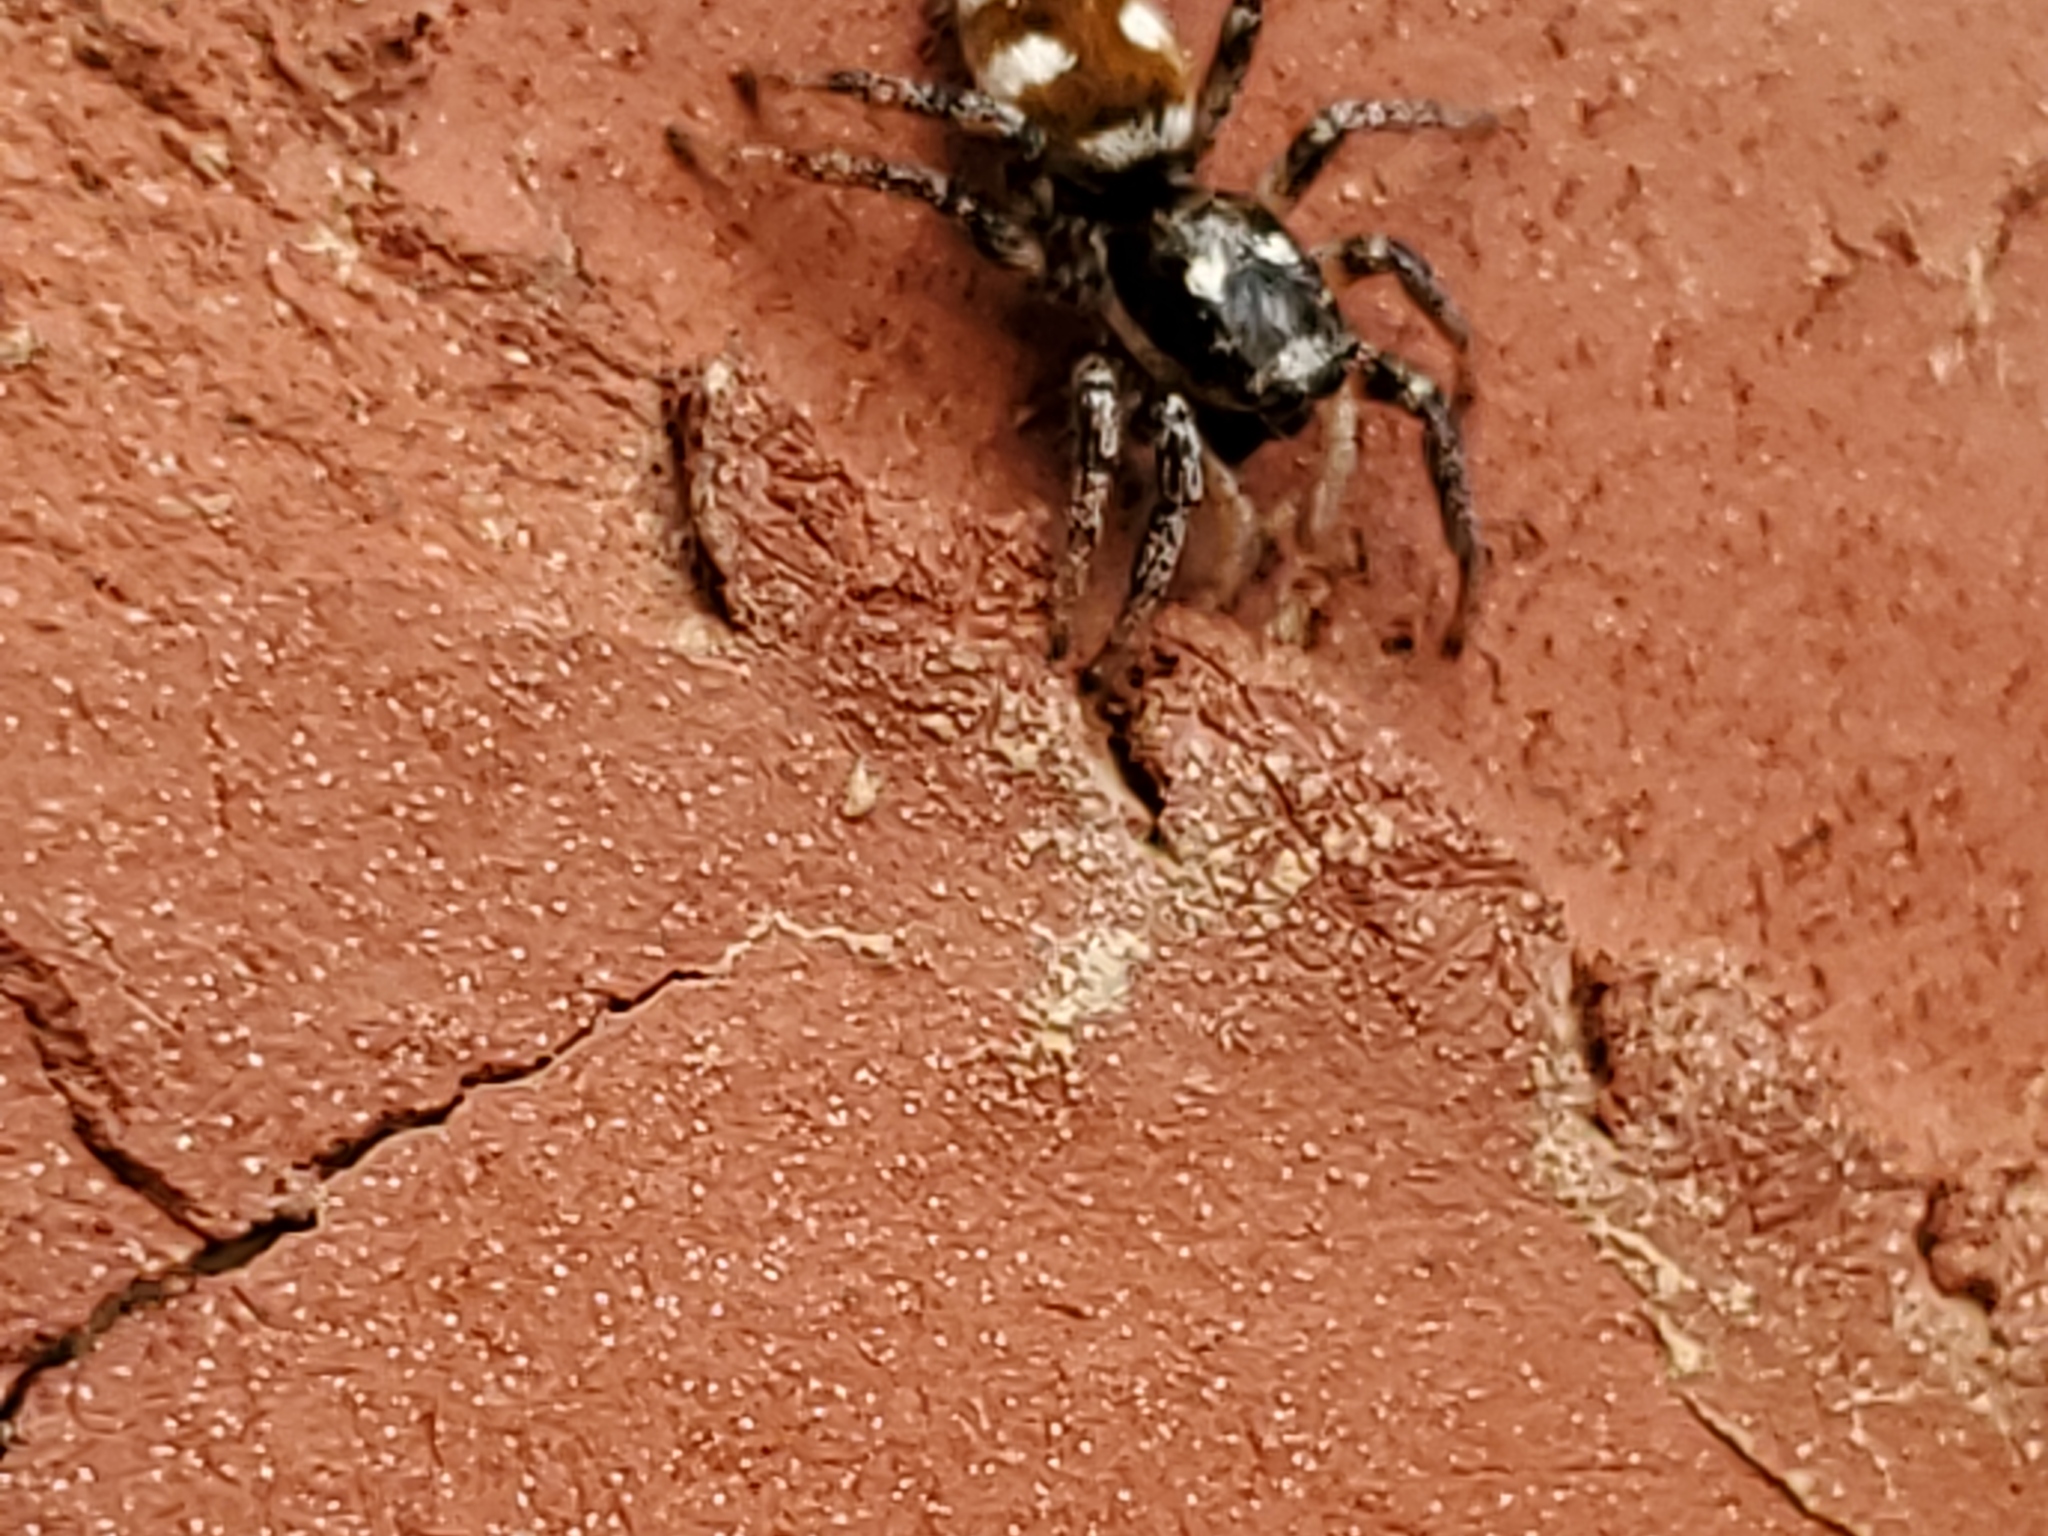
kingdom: Animalia
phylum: Arthropoda
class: Arachnida
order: Araneae
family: Salticidae
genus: Salticus
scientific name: Salticus scenicus
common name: Zebra jumper
